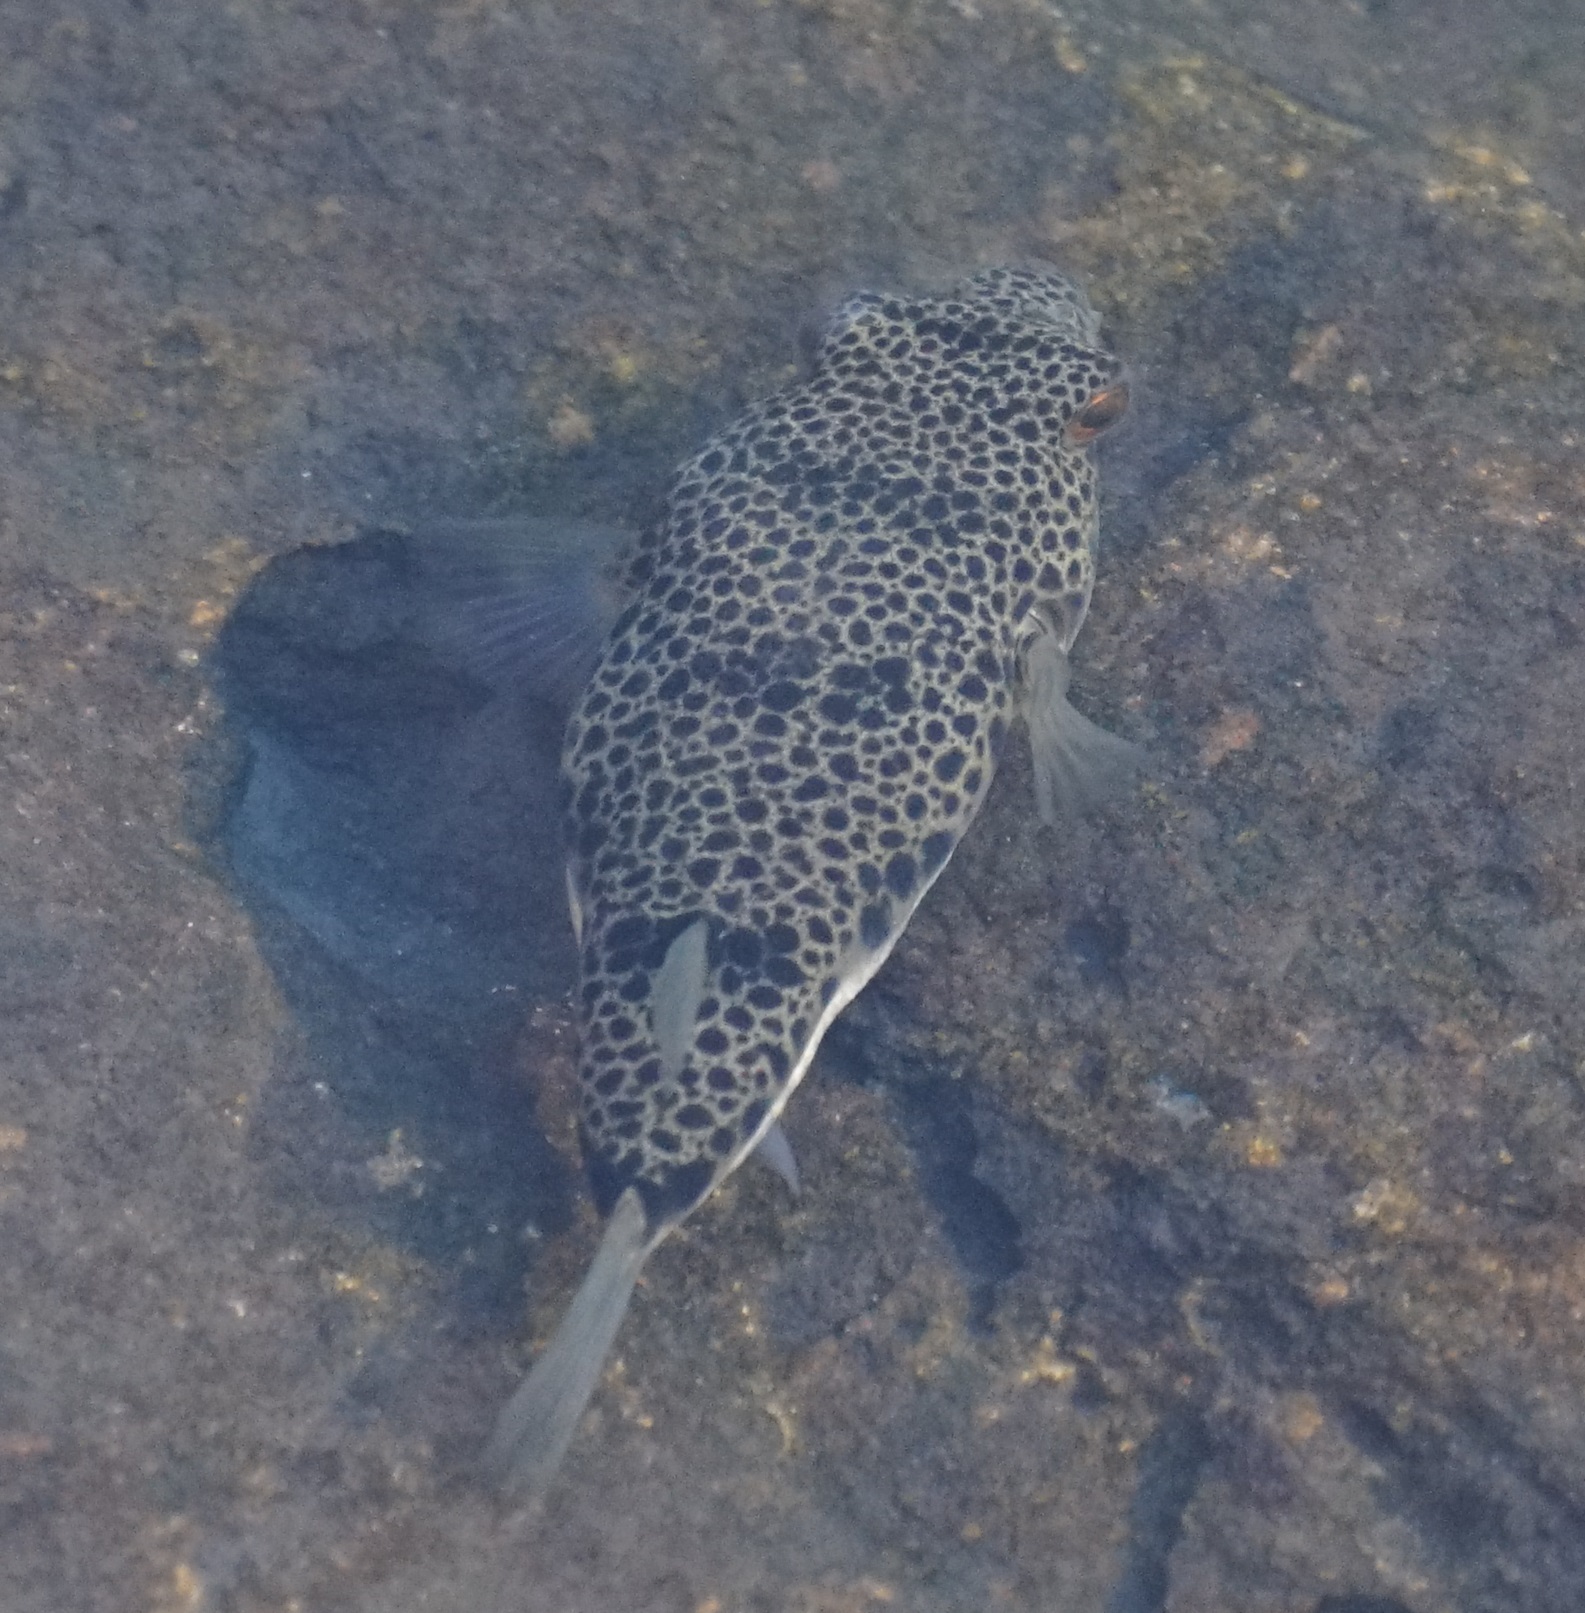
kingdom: Animalia
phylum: Chordata
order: Tetraodontiformes
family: Tetraodontidae
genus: Tetractenos
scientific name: Tetractenos glaber
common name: Smooth toadfish
